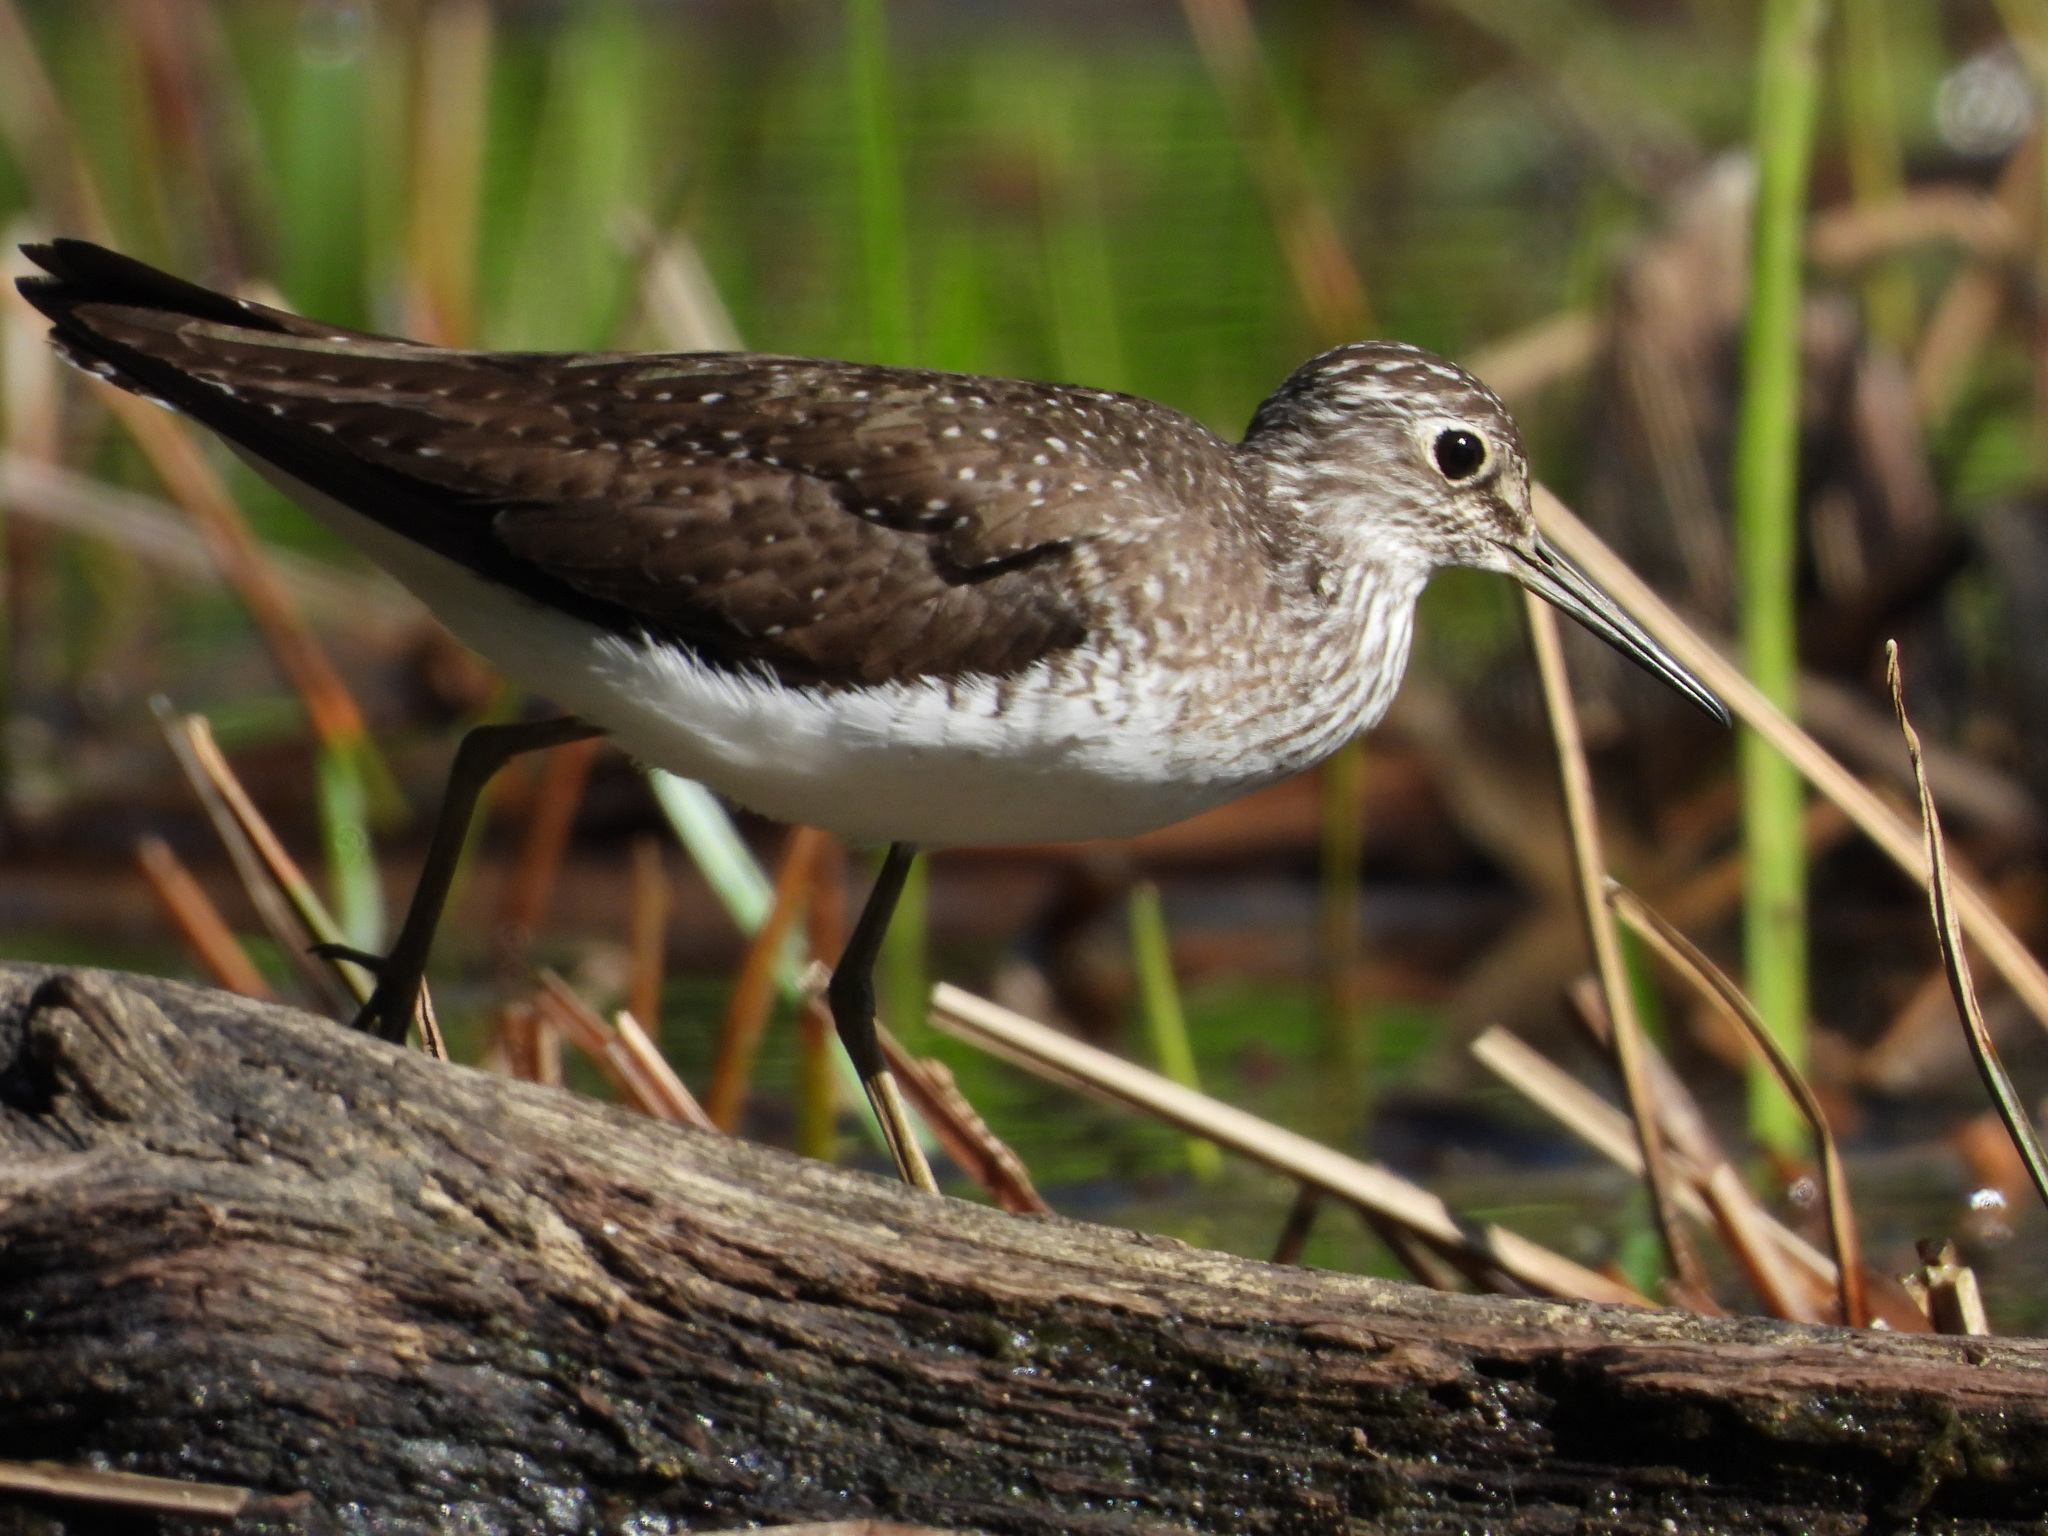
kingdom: Animalia
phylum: Chordata
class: Aves
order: Charadriiformes
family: Scolopacidae
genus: Tringa
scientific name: Tringa solitaria
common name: Solitary sandpiper
